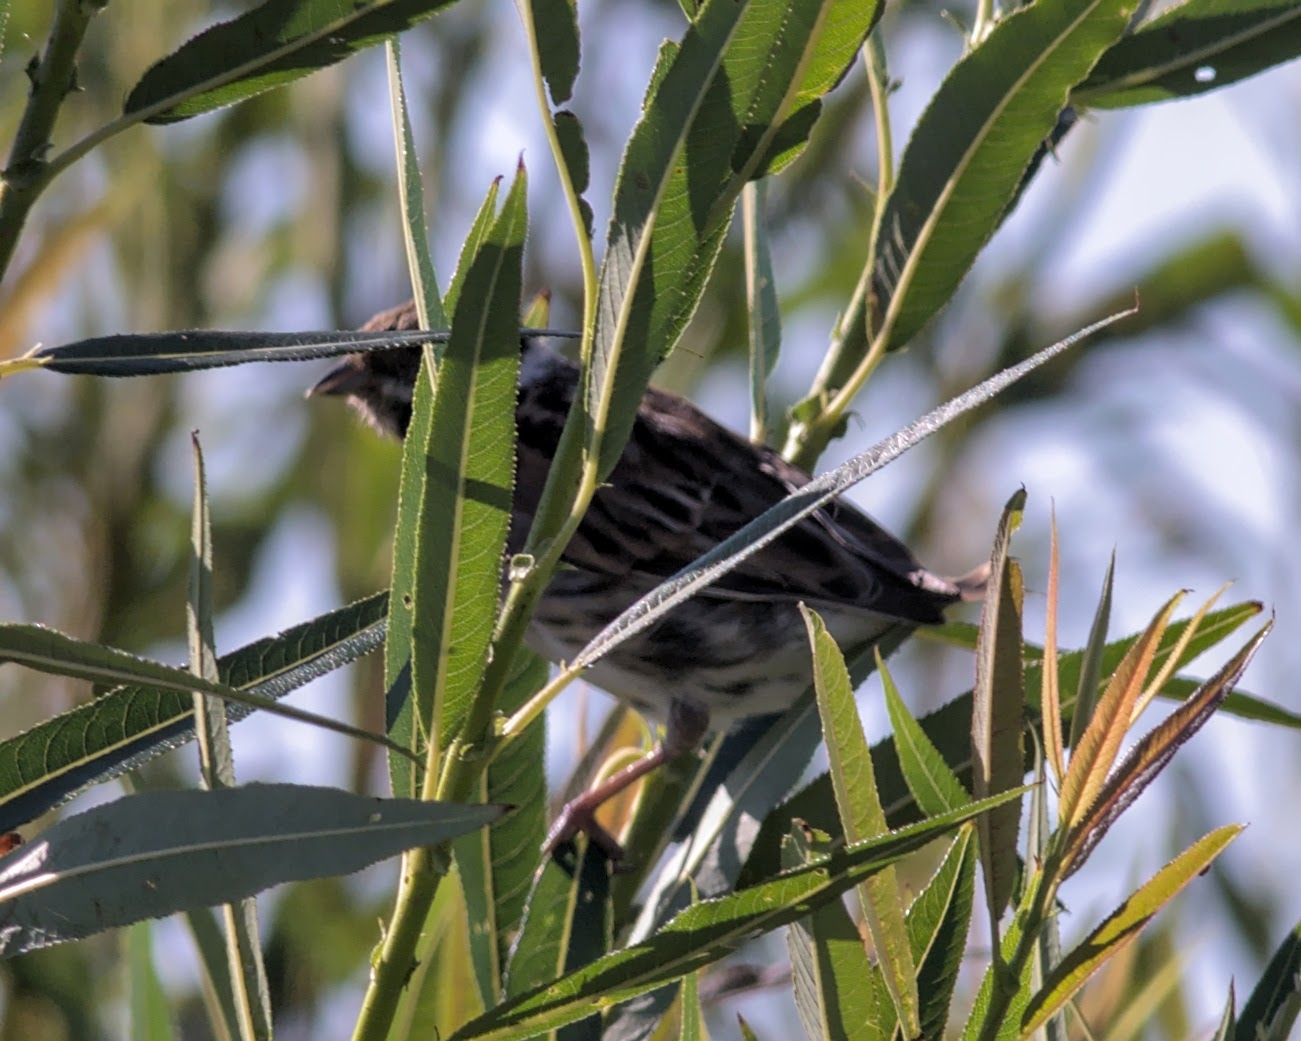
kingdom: Animalia
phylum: Chordata
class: Aves
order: Passeriformes
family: Emberizidae
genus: Emberiza
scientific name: Emberiza schoeniclus
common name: Reed bunting
